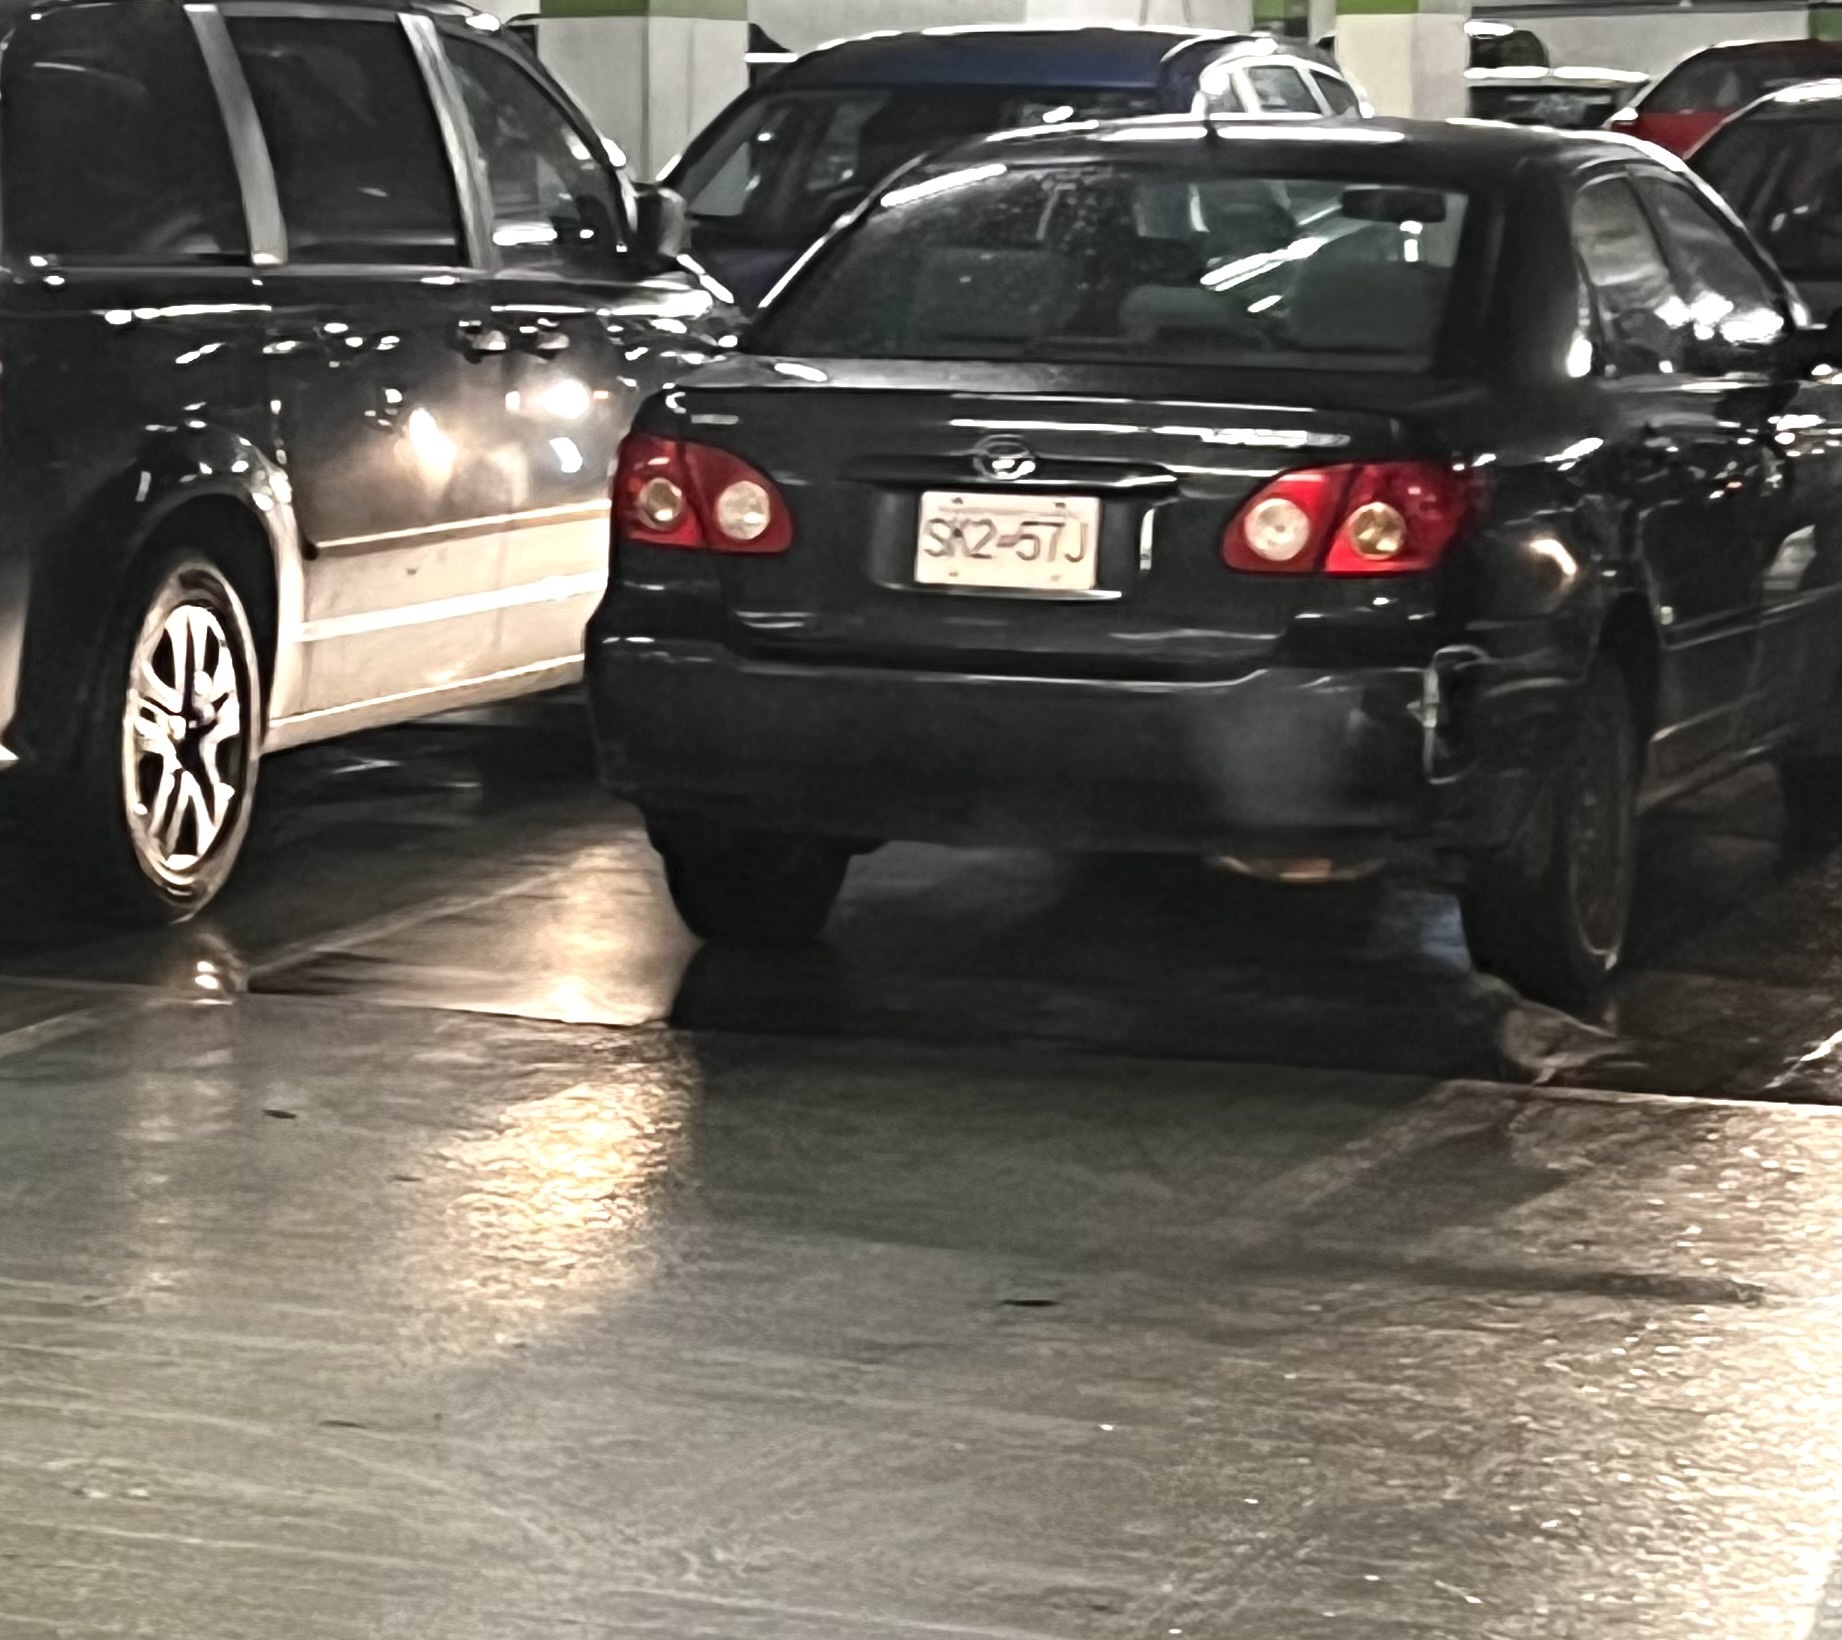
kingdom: Animalia
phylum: Chordata
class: Aves
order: Columbiformes
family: Columbidae
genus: Columba
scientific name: Columba livia
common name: Rock pigeon
